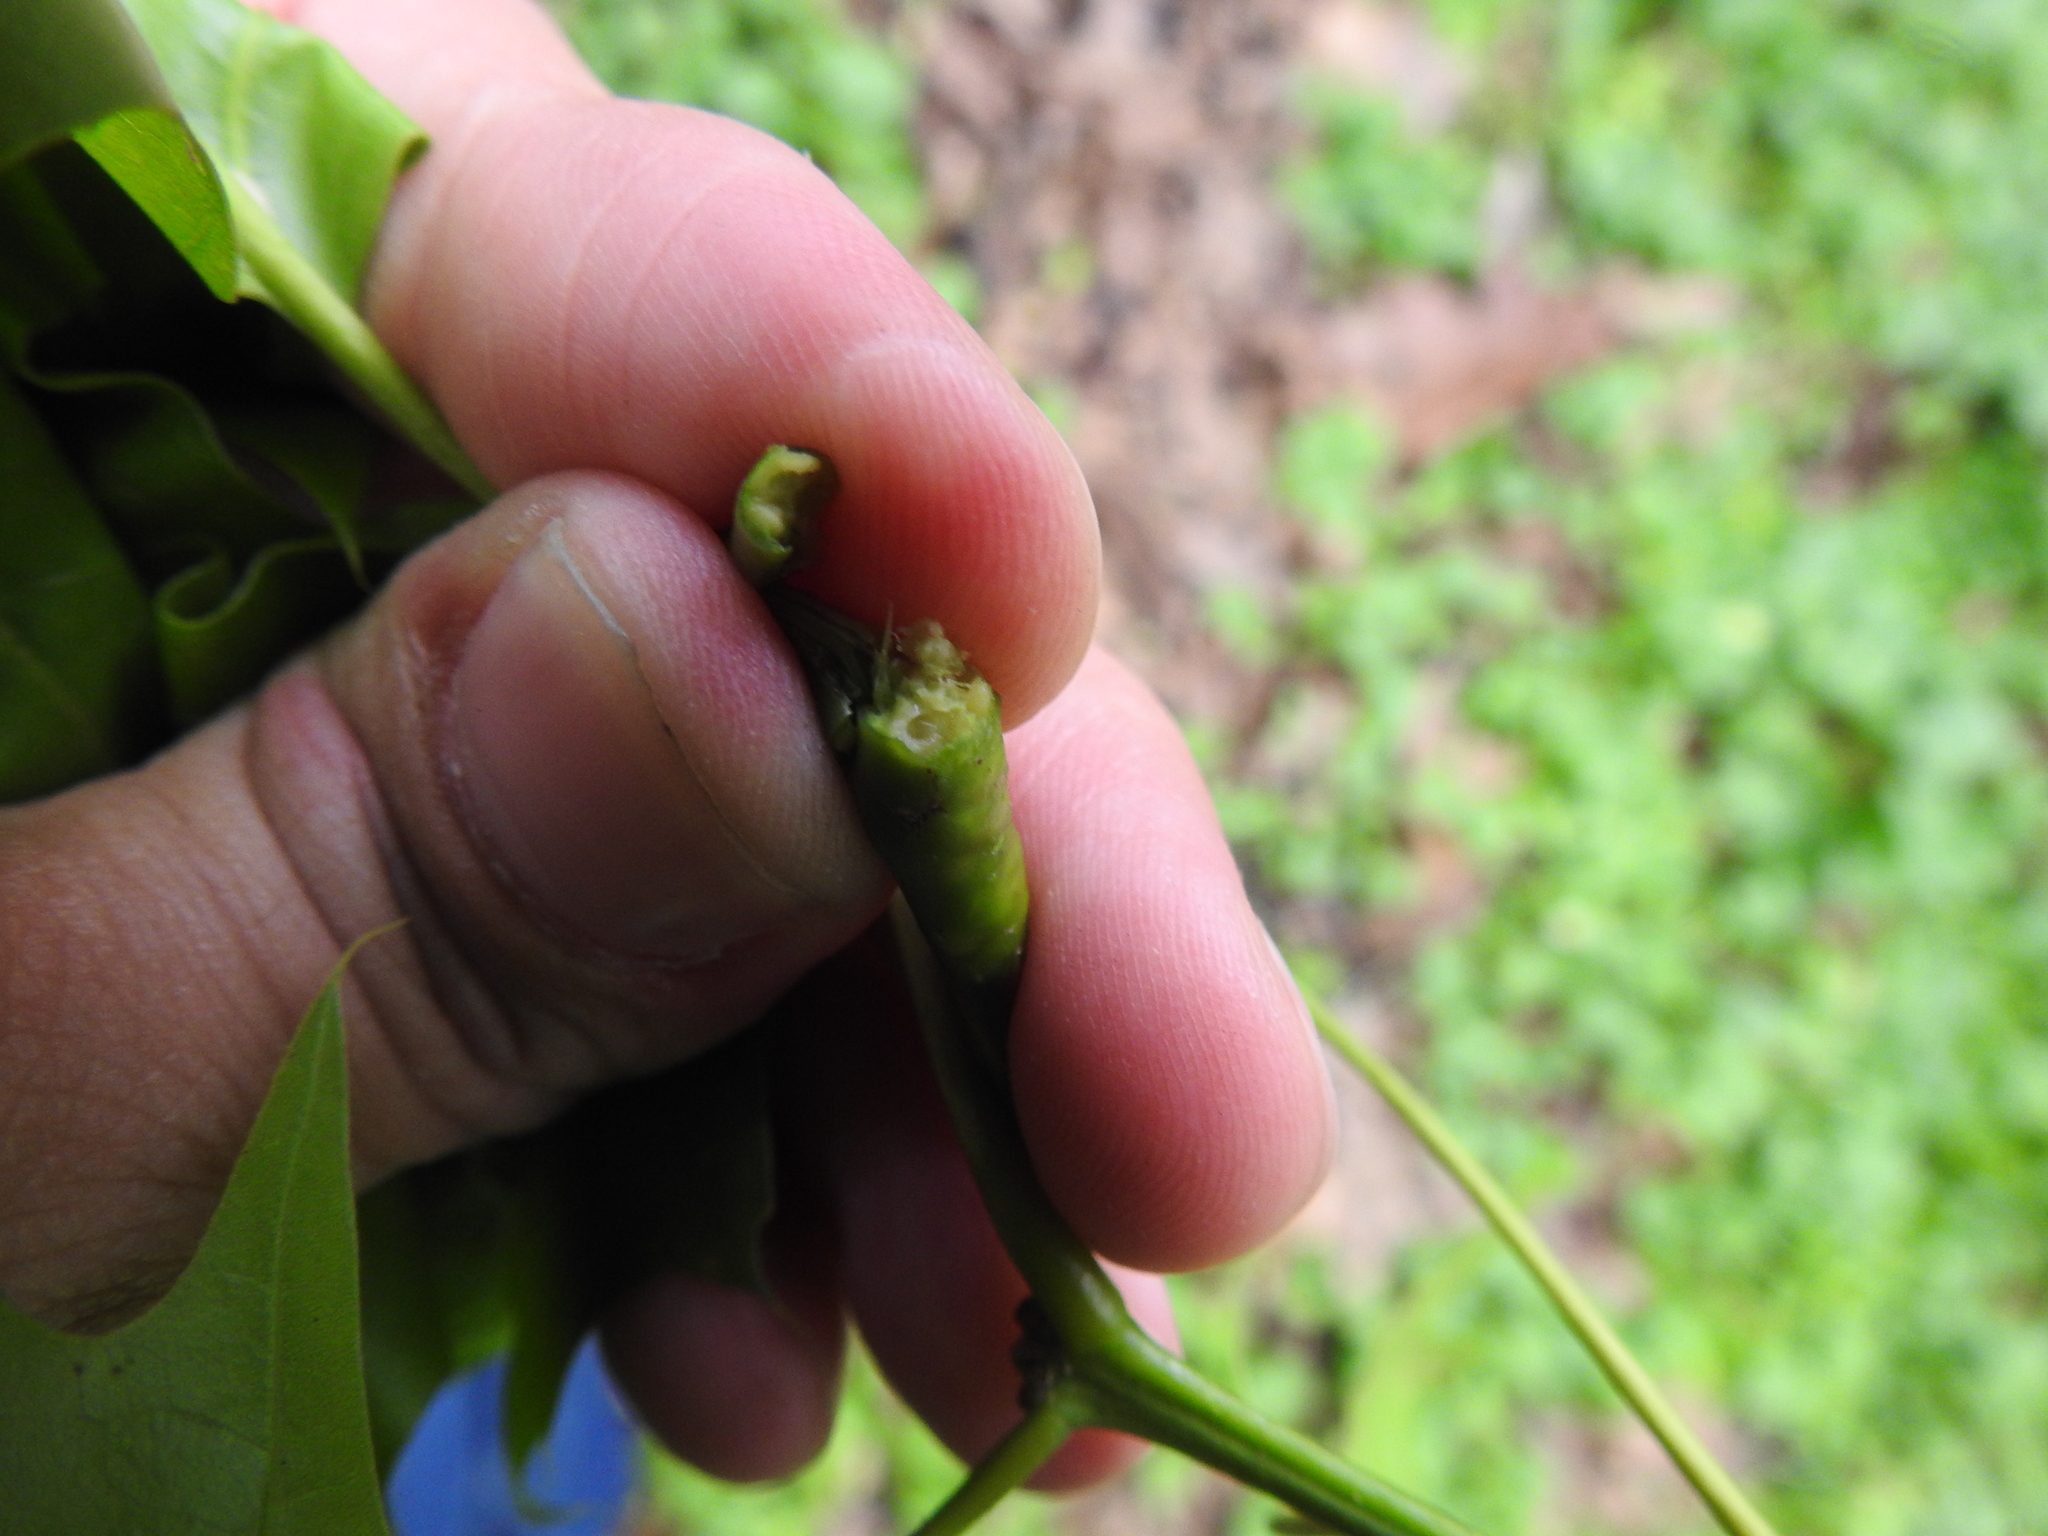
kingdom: Animalia
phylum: Arthropoda
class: Insecta
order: Hymenoptera
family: Cynipidae
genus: Melikaiella
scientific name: Melikaiella tumifica
